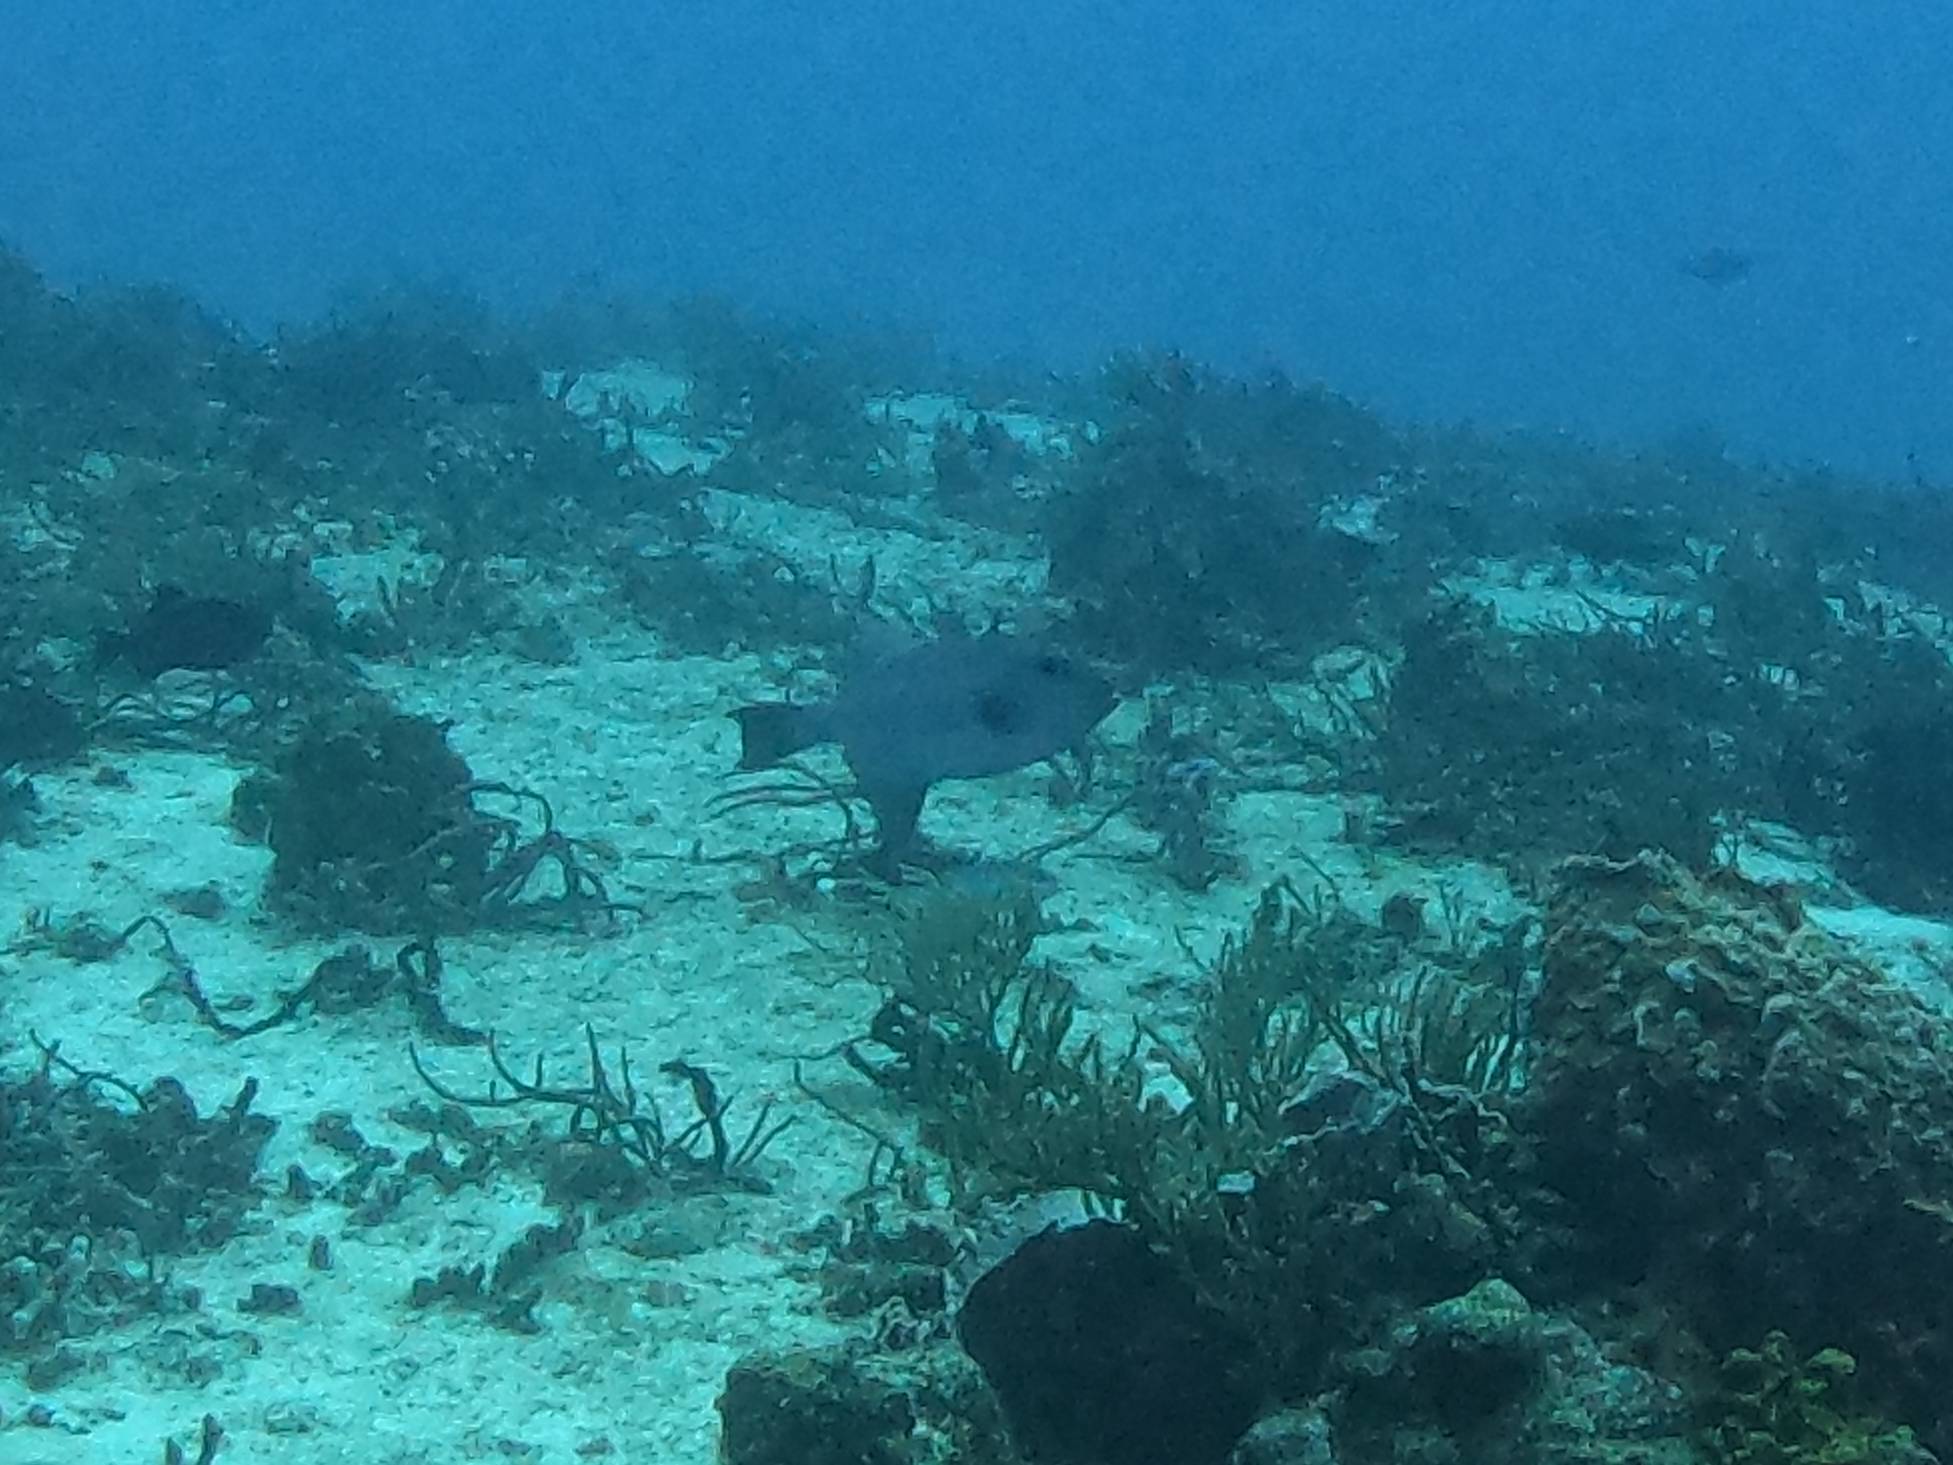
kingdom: Animalia
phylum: Chordata
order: Tetraodontiformes
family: Balistidae
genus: Canthidermis
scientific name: Canthidermis sufflamen
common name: Ocean triggerfish
